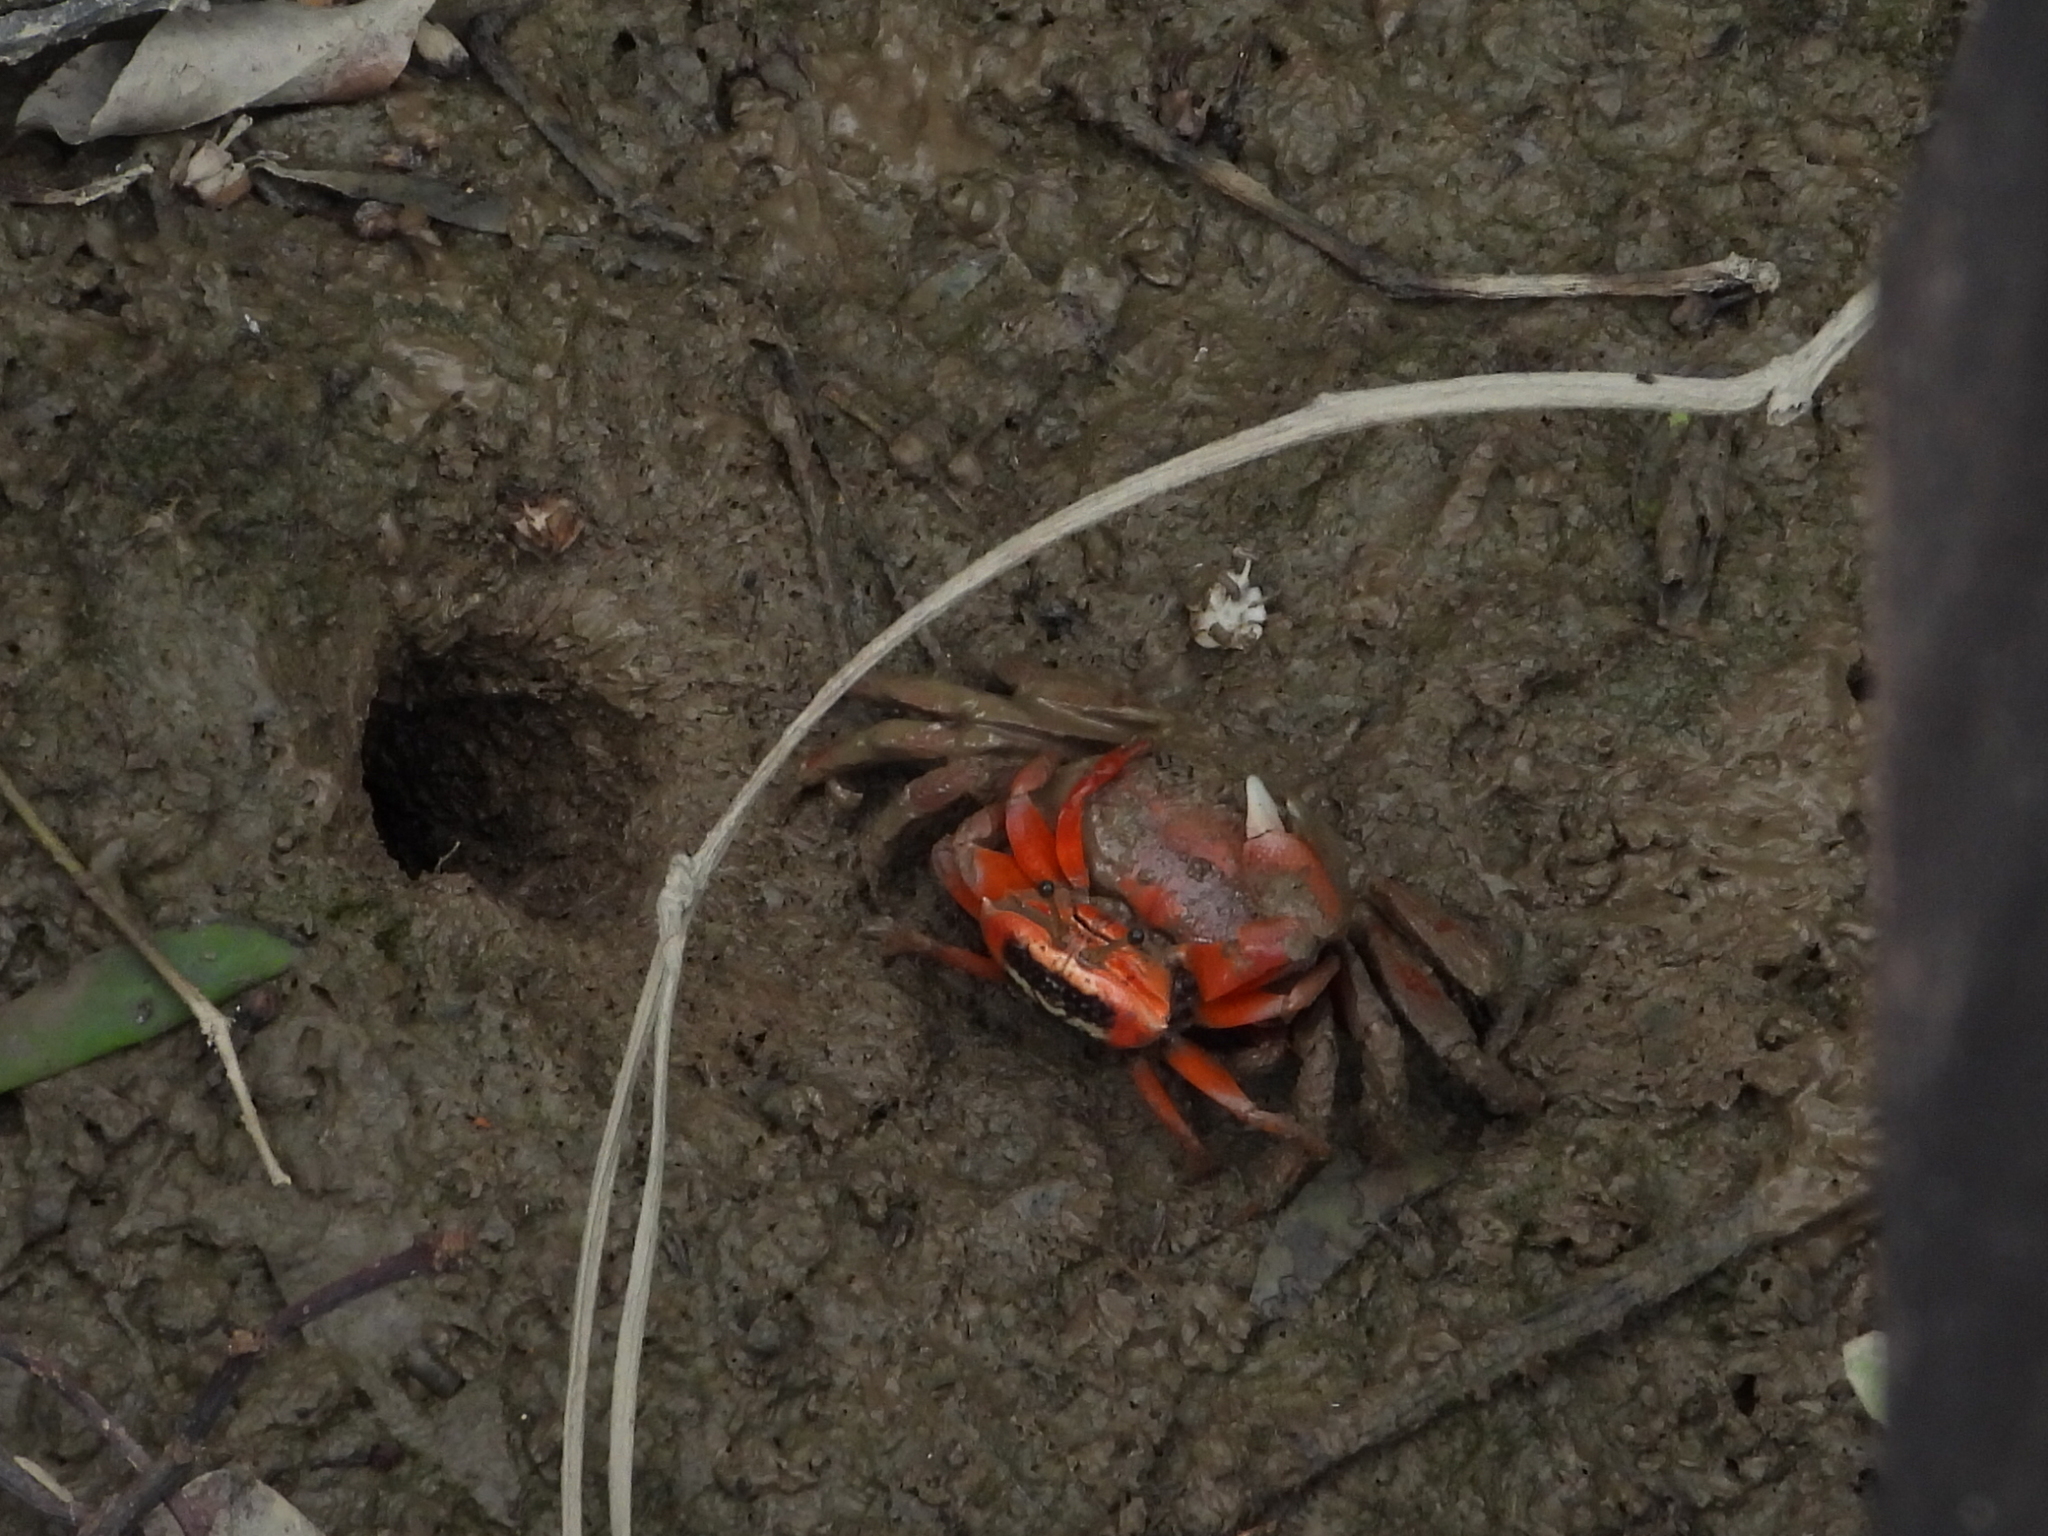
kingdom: Animalia
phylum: Arthropoda
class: Malacostraca
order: Decapoda
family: Ocypodidae
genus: Tubuca
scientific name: Tubuca arcuata
